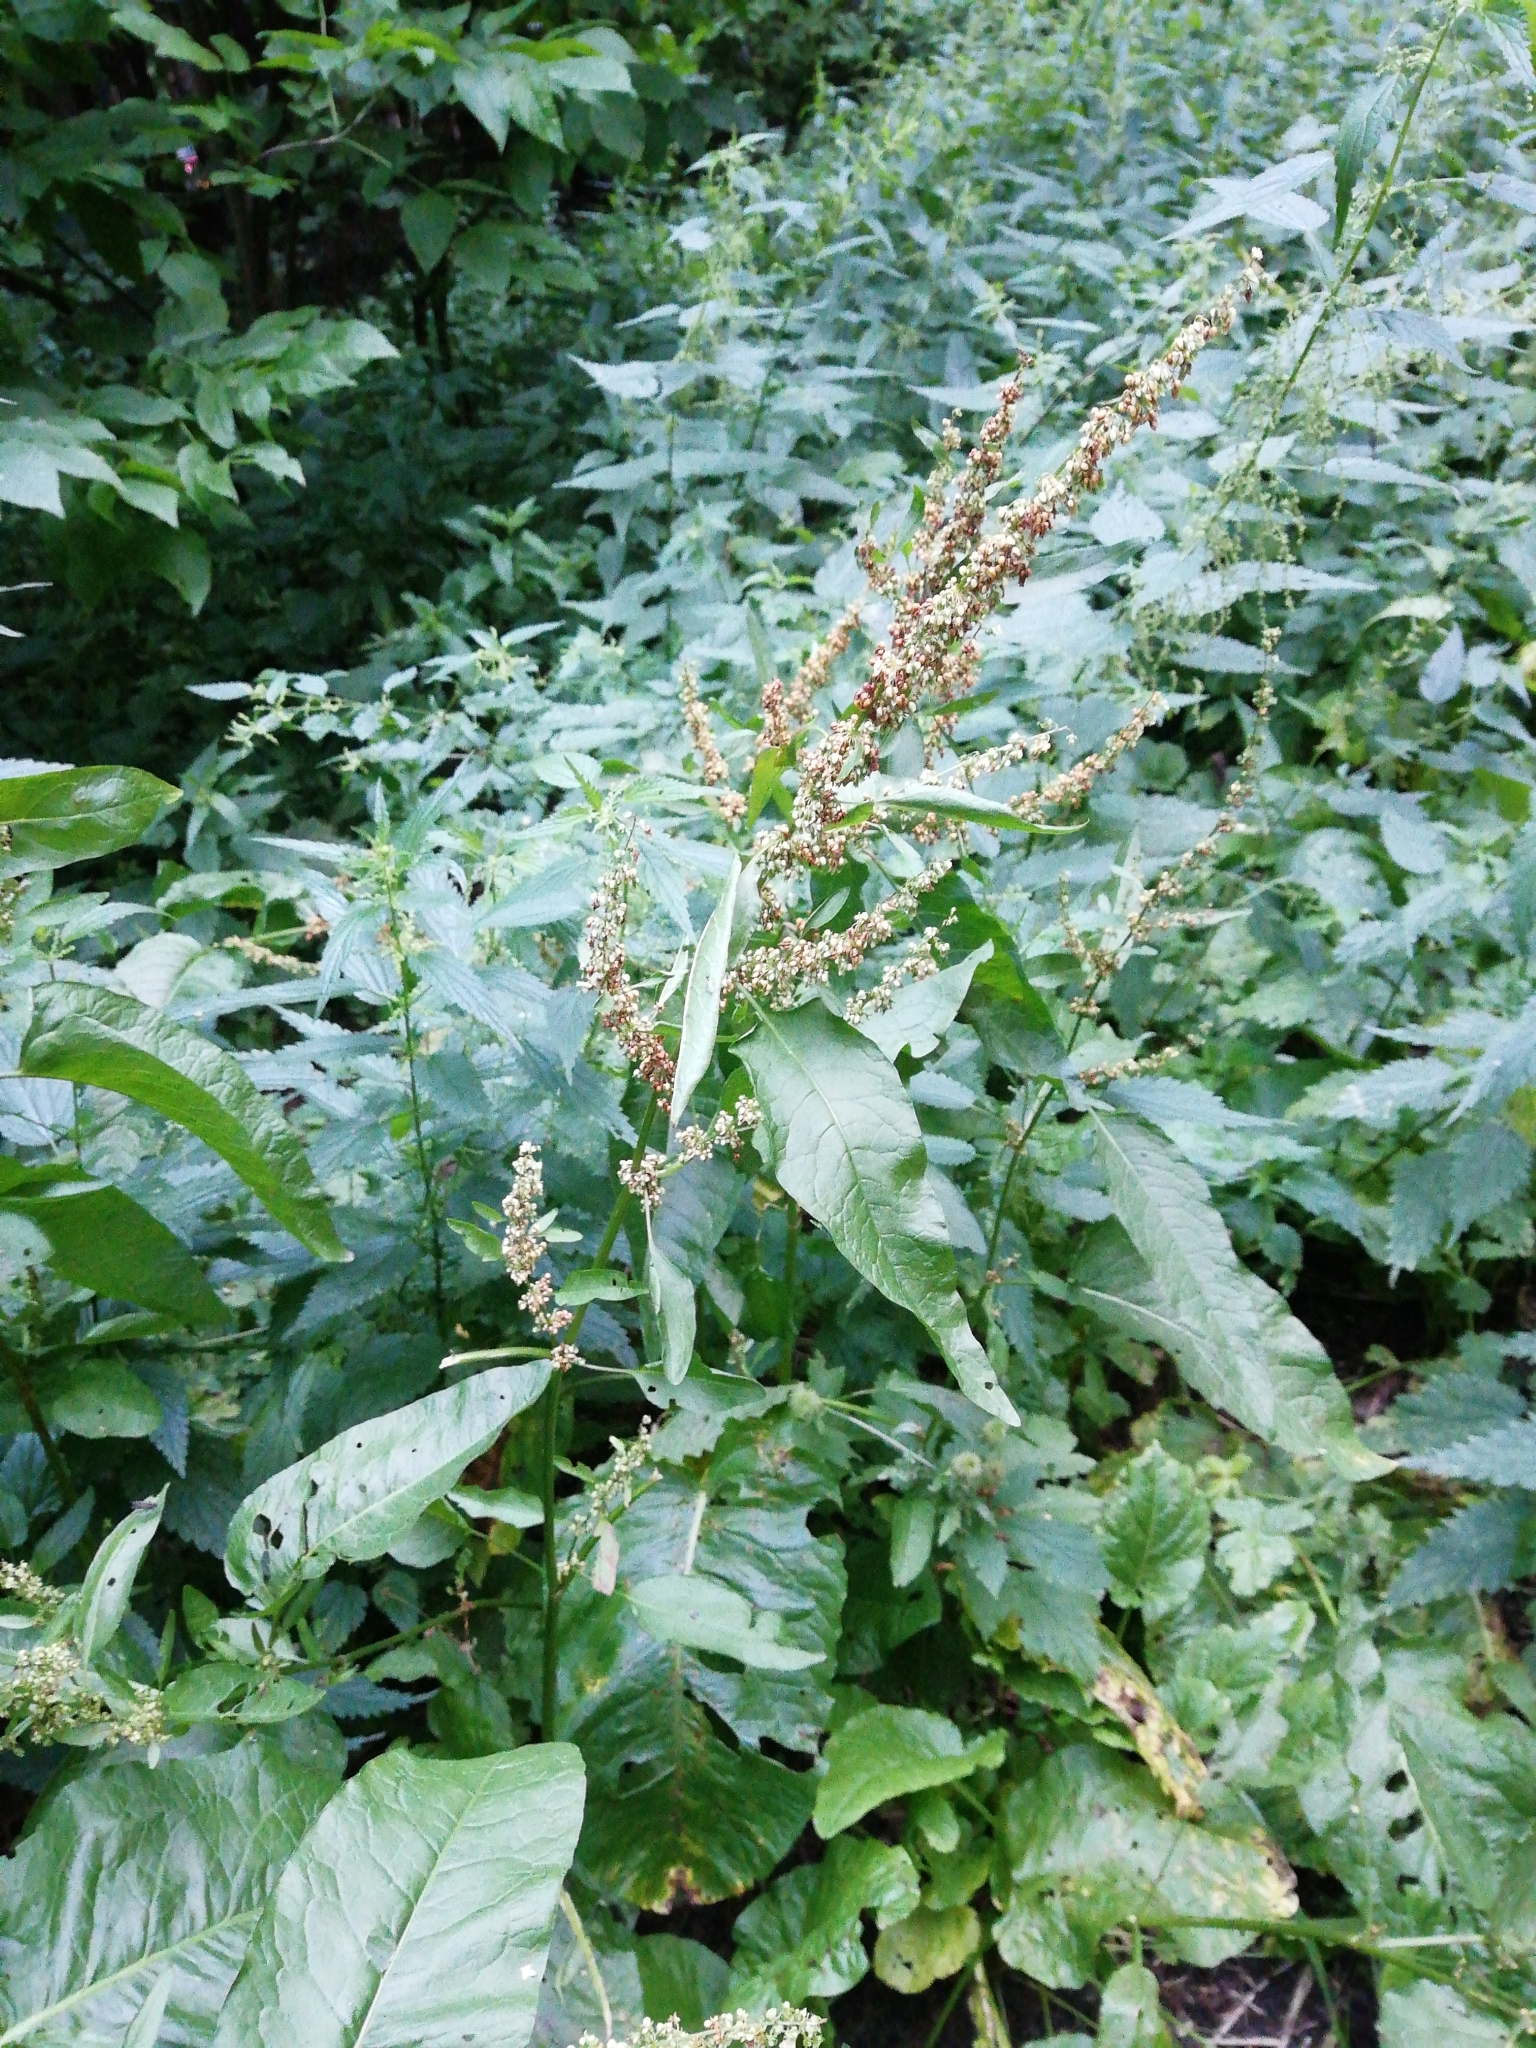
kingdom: Plantae
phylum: Tracheophyta
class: Magnoliopsida
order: Caryophyllales
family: Polygonaceae
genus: Rumex
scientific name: Rumex obtusifolius
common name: Bitter dock
